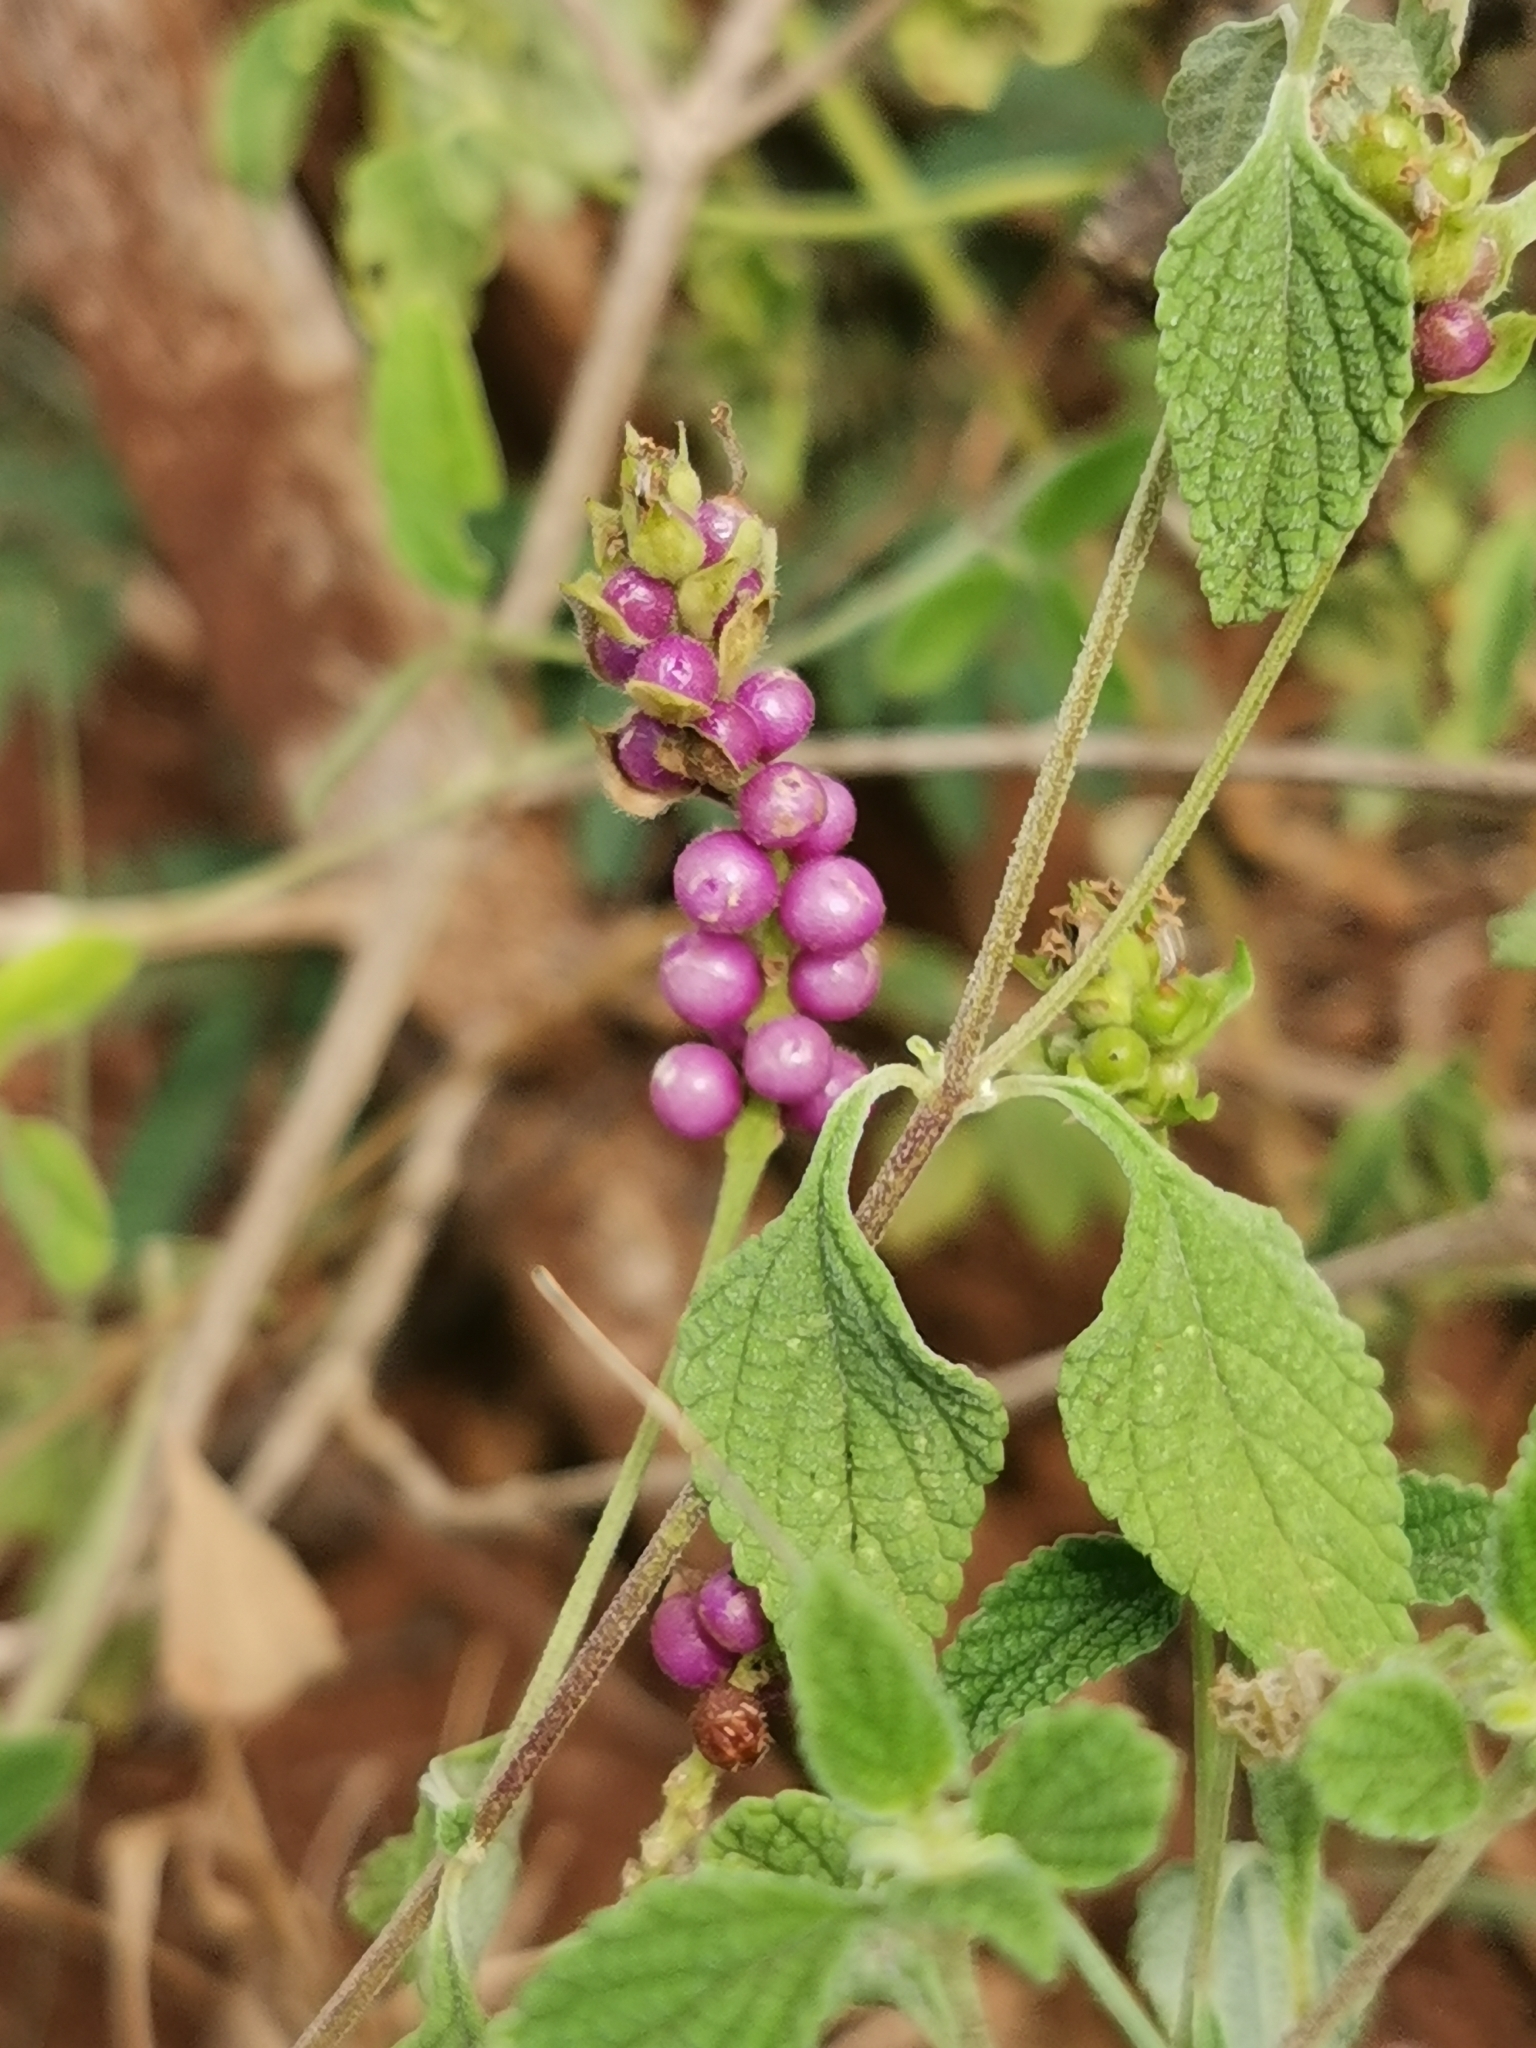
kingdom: Plantae
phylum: Tracheophyta
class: Magnoliopsida
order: Lamiales
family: Verbenaceae
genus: Lantana
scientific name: Lantana rugosa
